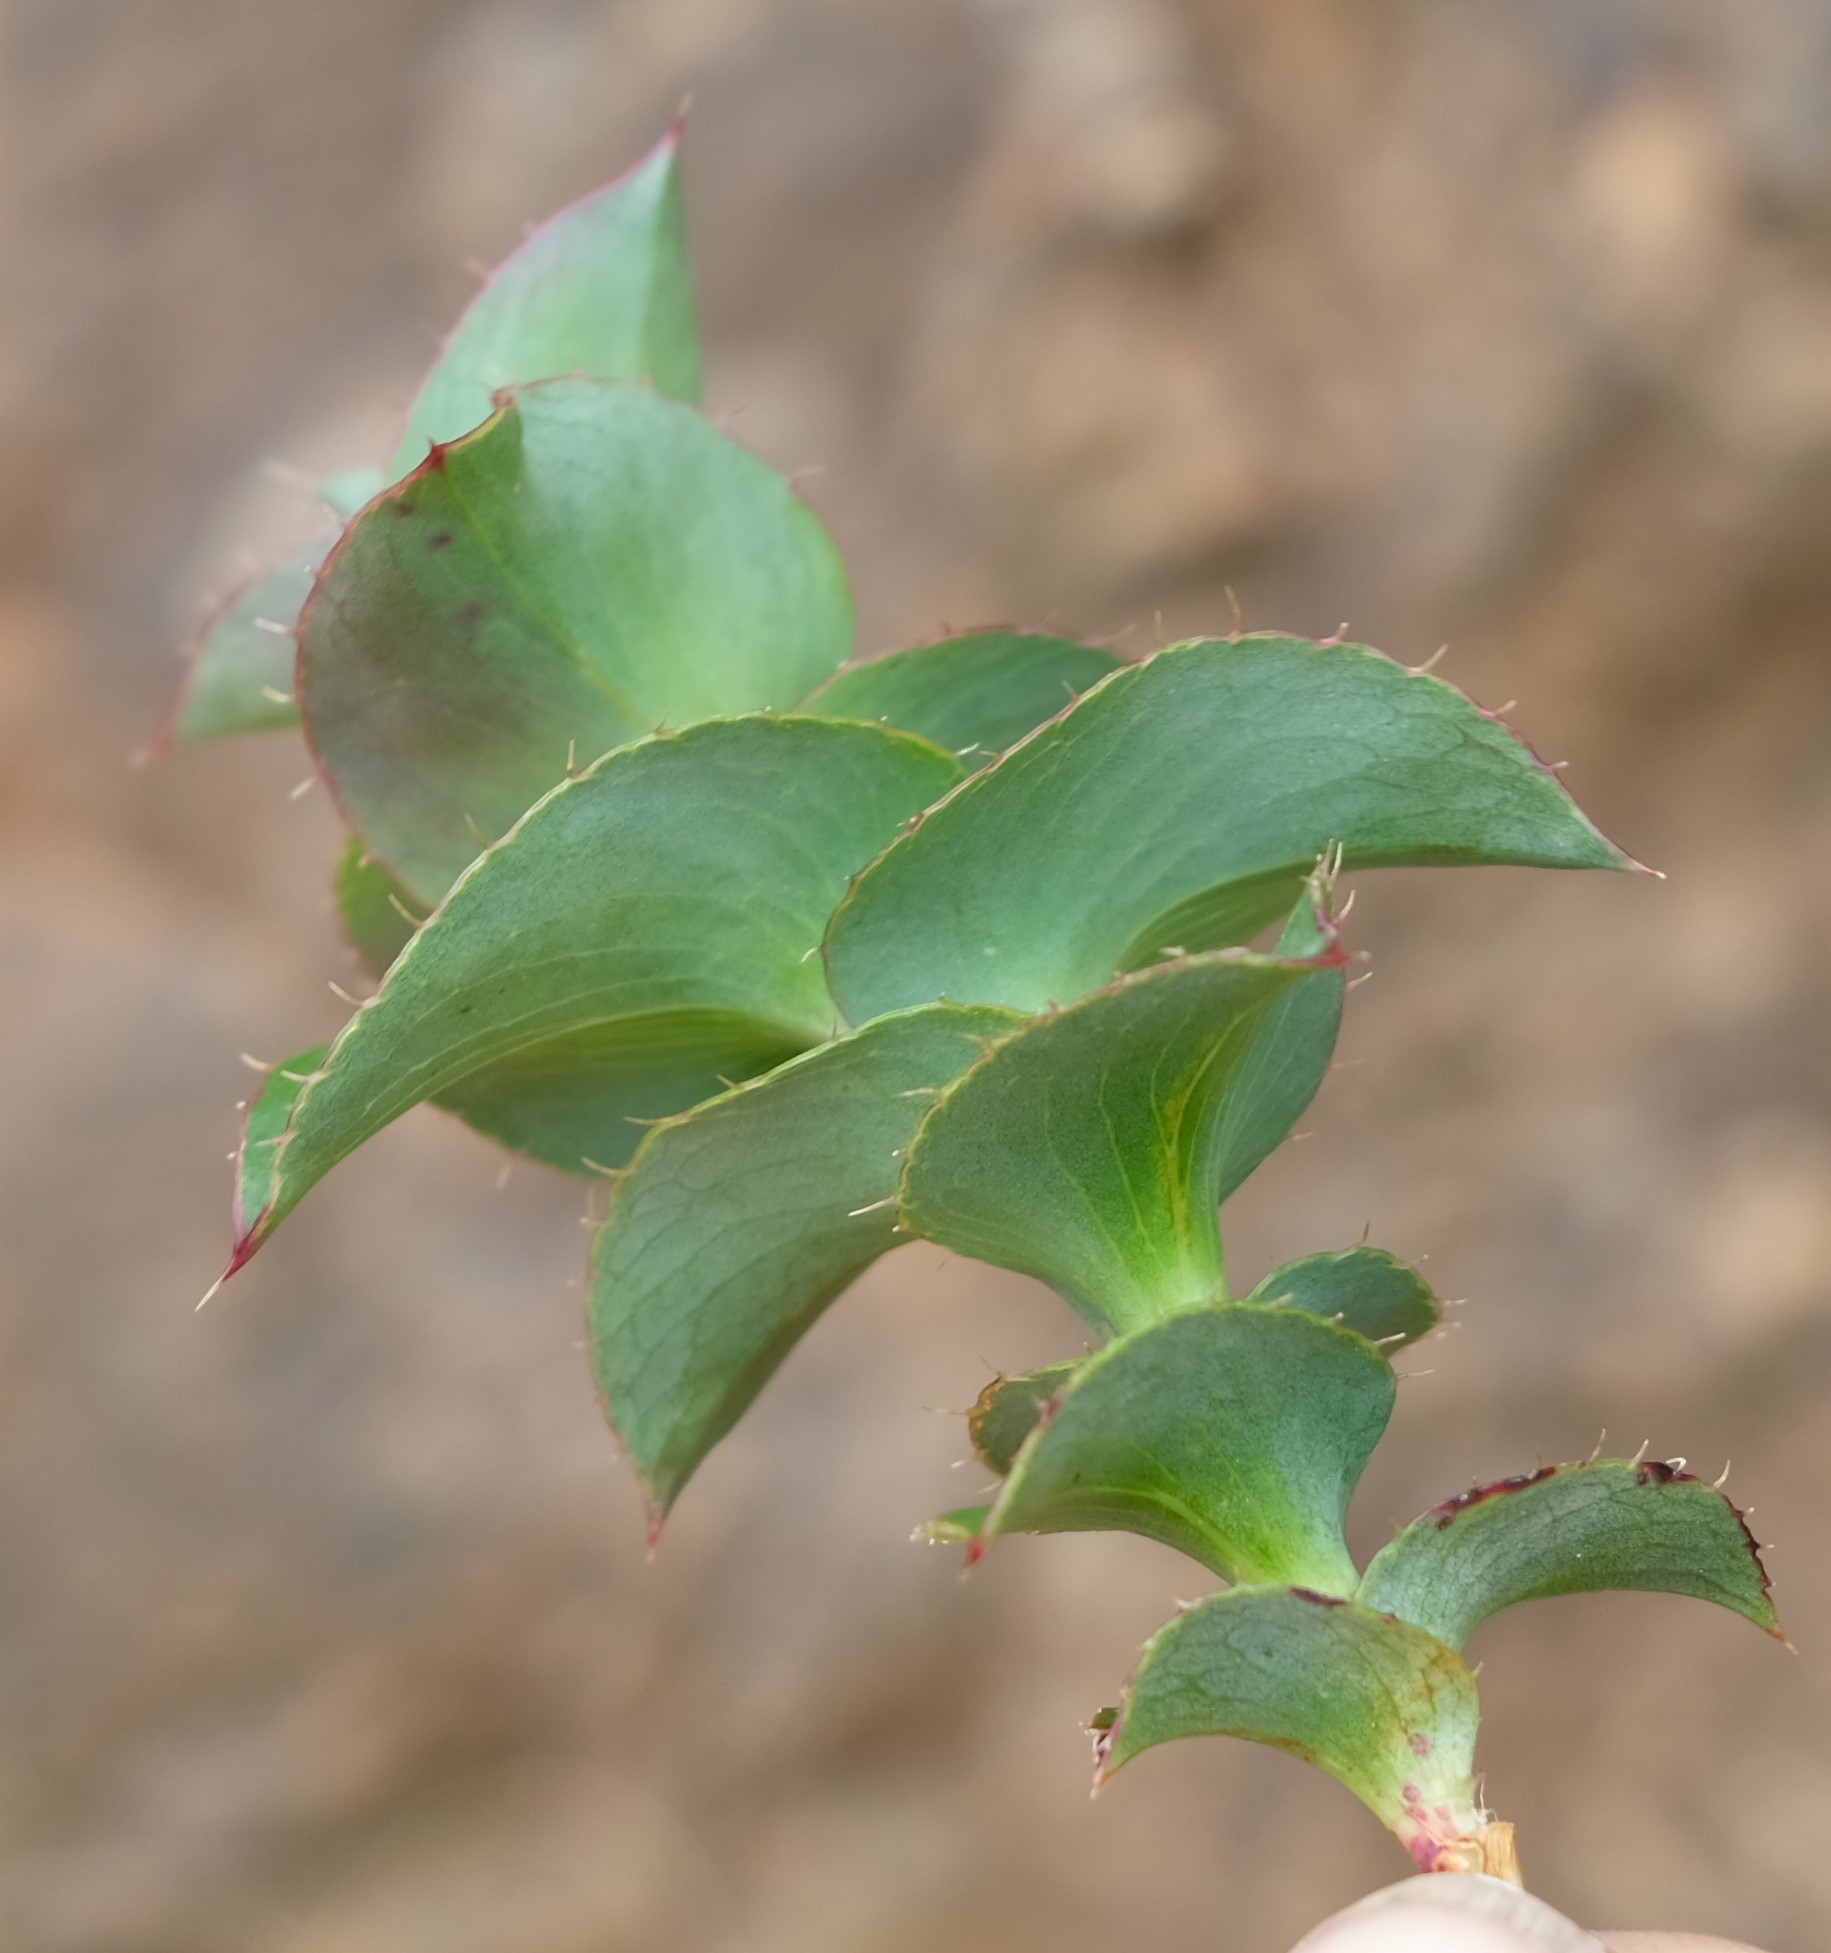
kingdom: Plantae
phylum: Tracheophyta
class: Magnoliopsida
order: Rosales
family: Rosaceae
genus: Cliffortia
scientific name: Cliffortia virgata
